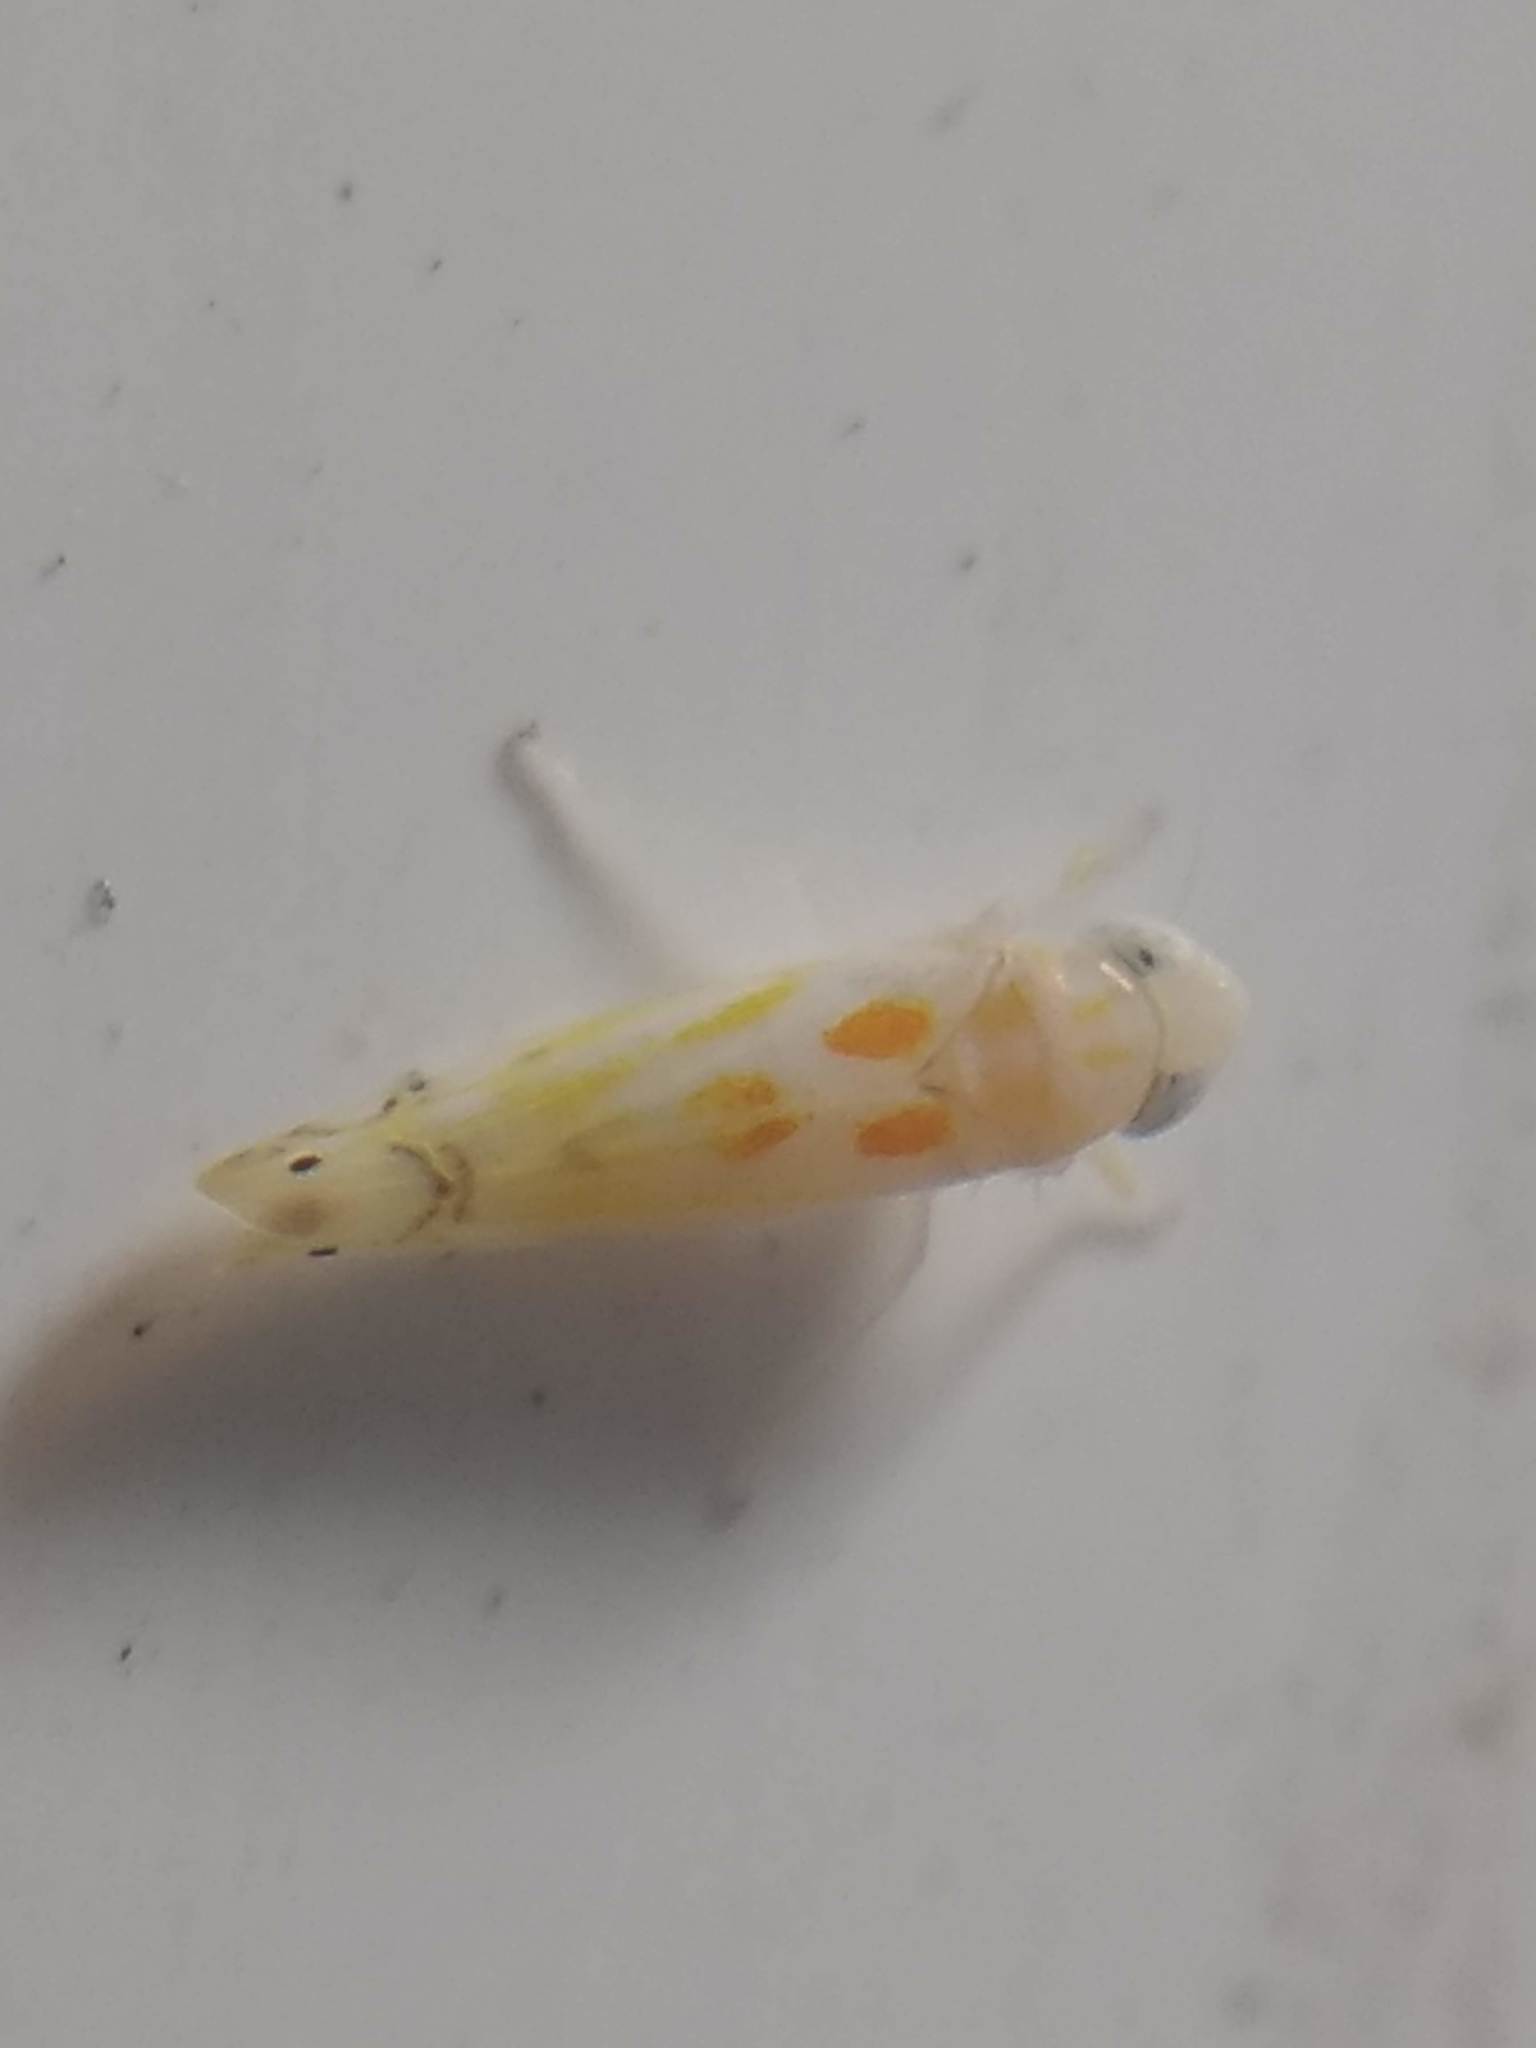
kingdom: Animalia
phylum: Arthropoda
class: Insecta
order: Hemiptera
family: Cicadellidae
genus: Alconeura
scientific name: Alconeura quadrimaculata
